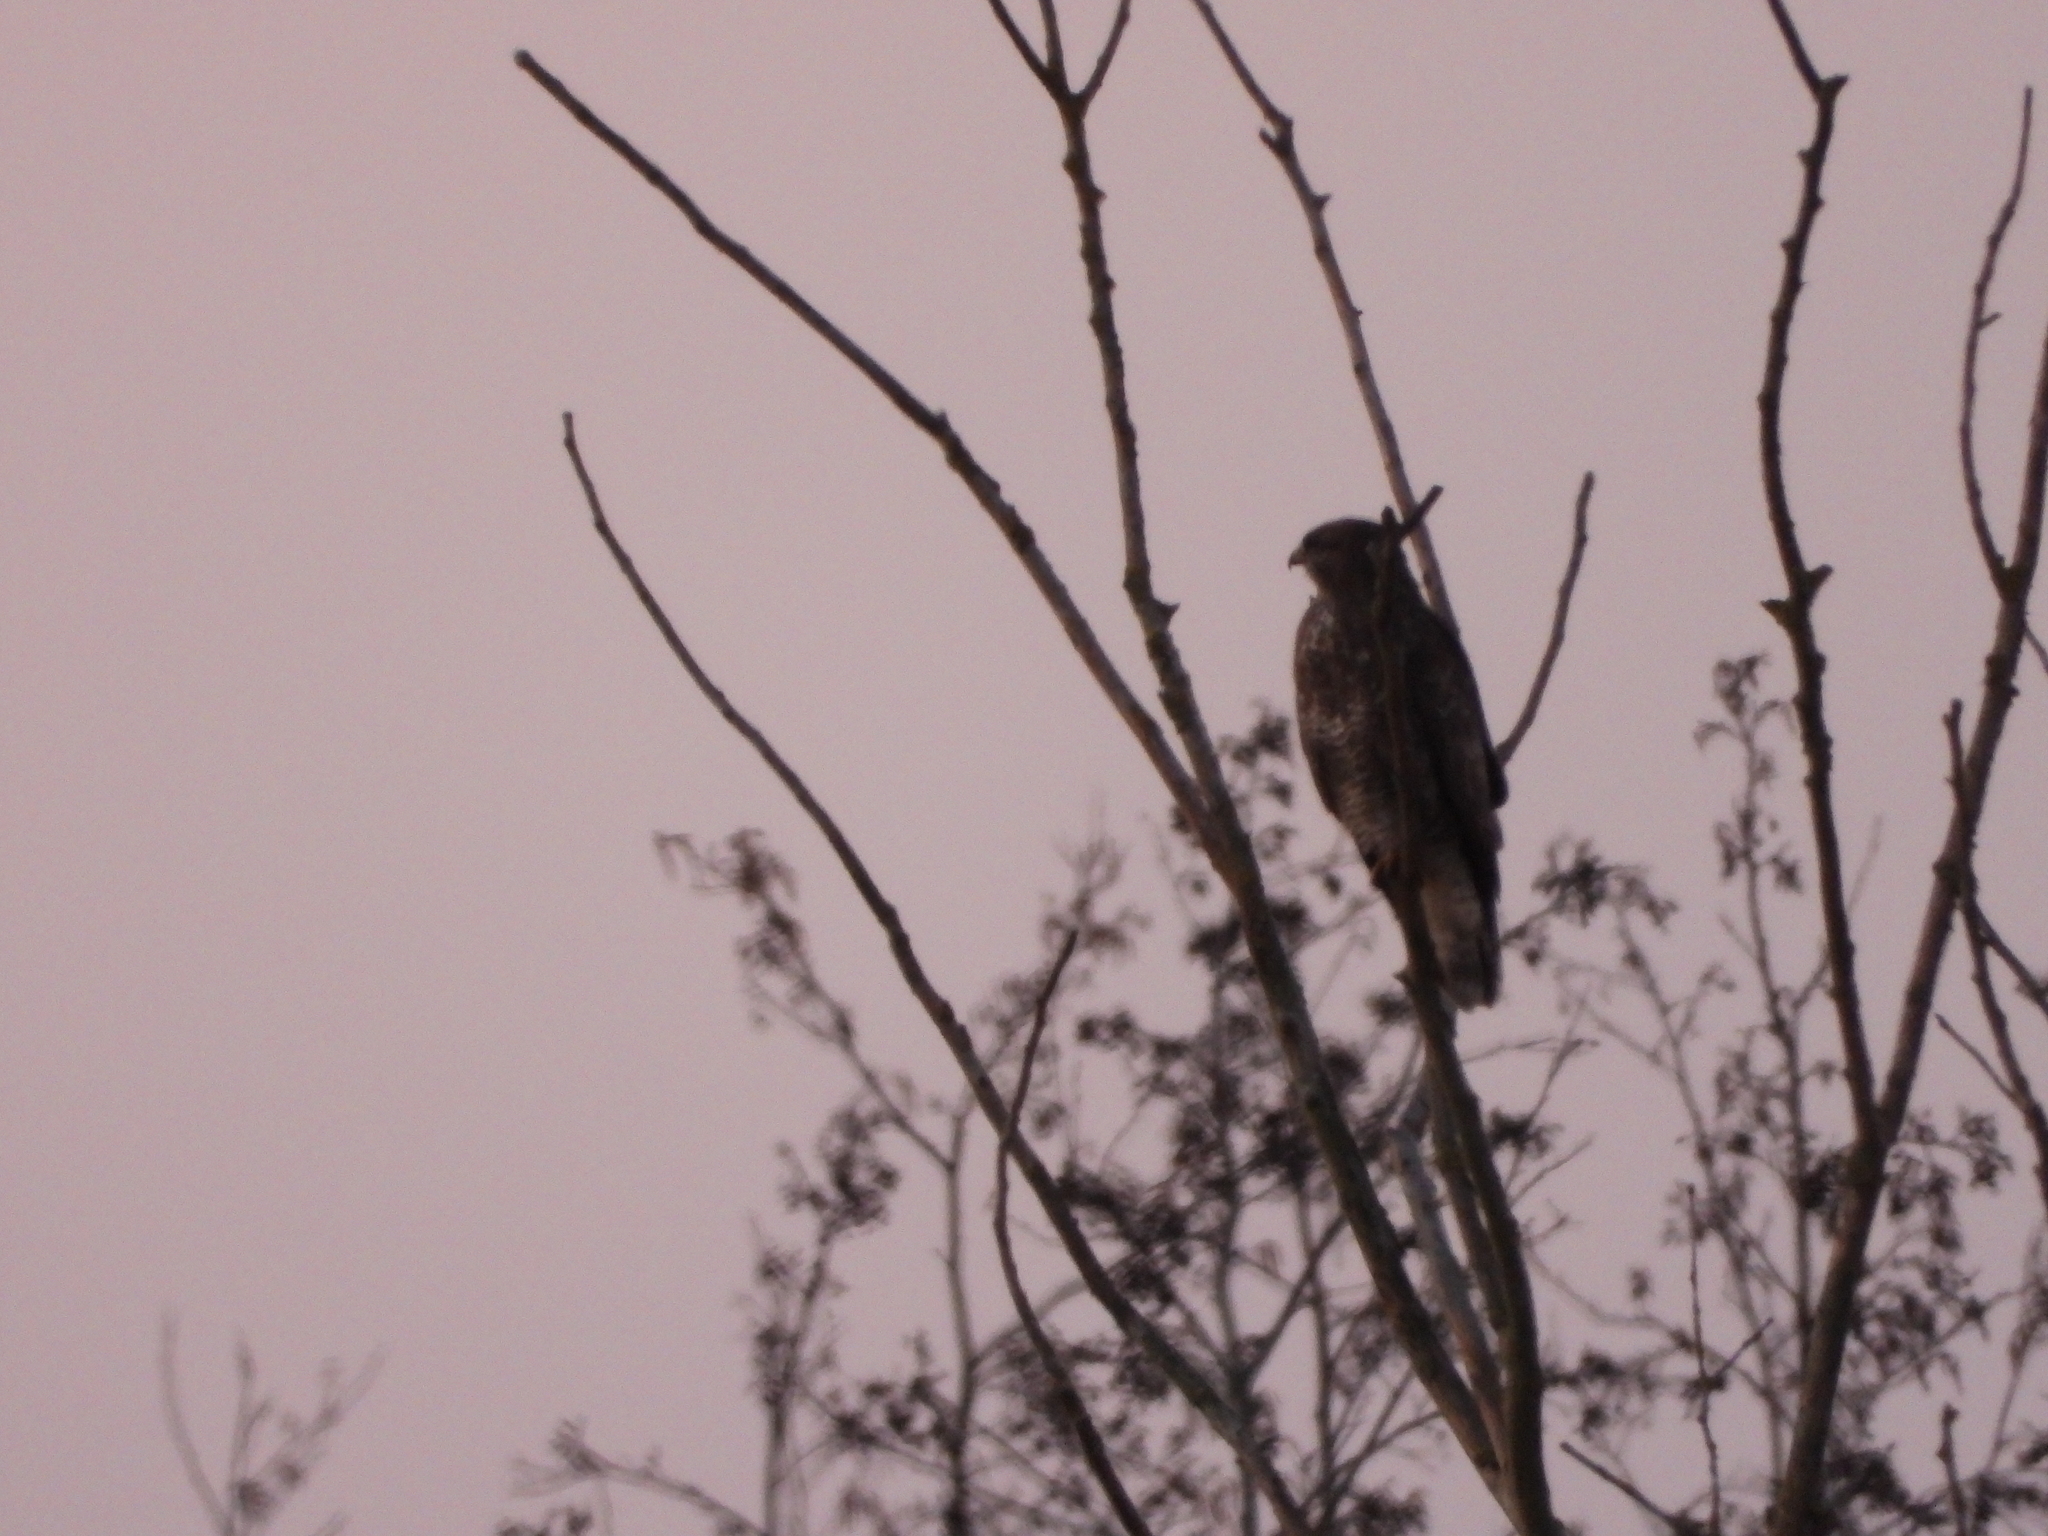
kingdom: Animalia
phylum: Chordata
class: Aves
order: Accipitriformes
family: Accipitridae
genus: Buteo
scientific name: Buteo buteo
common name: Common buzzard
